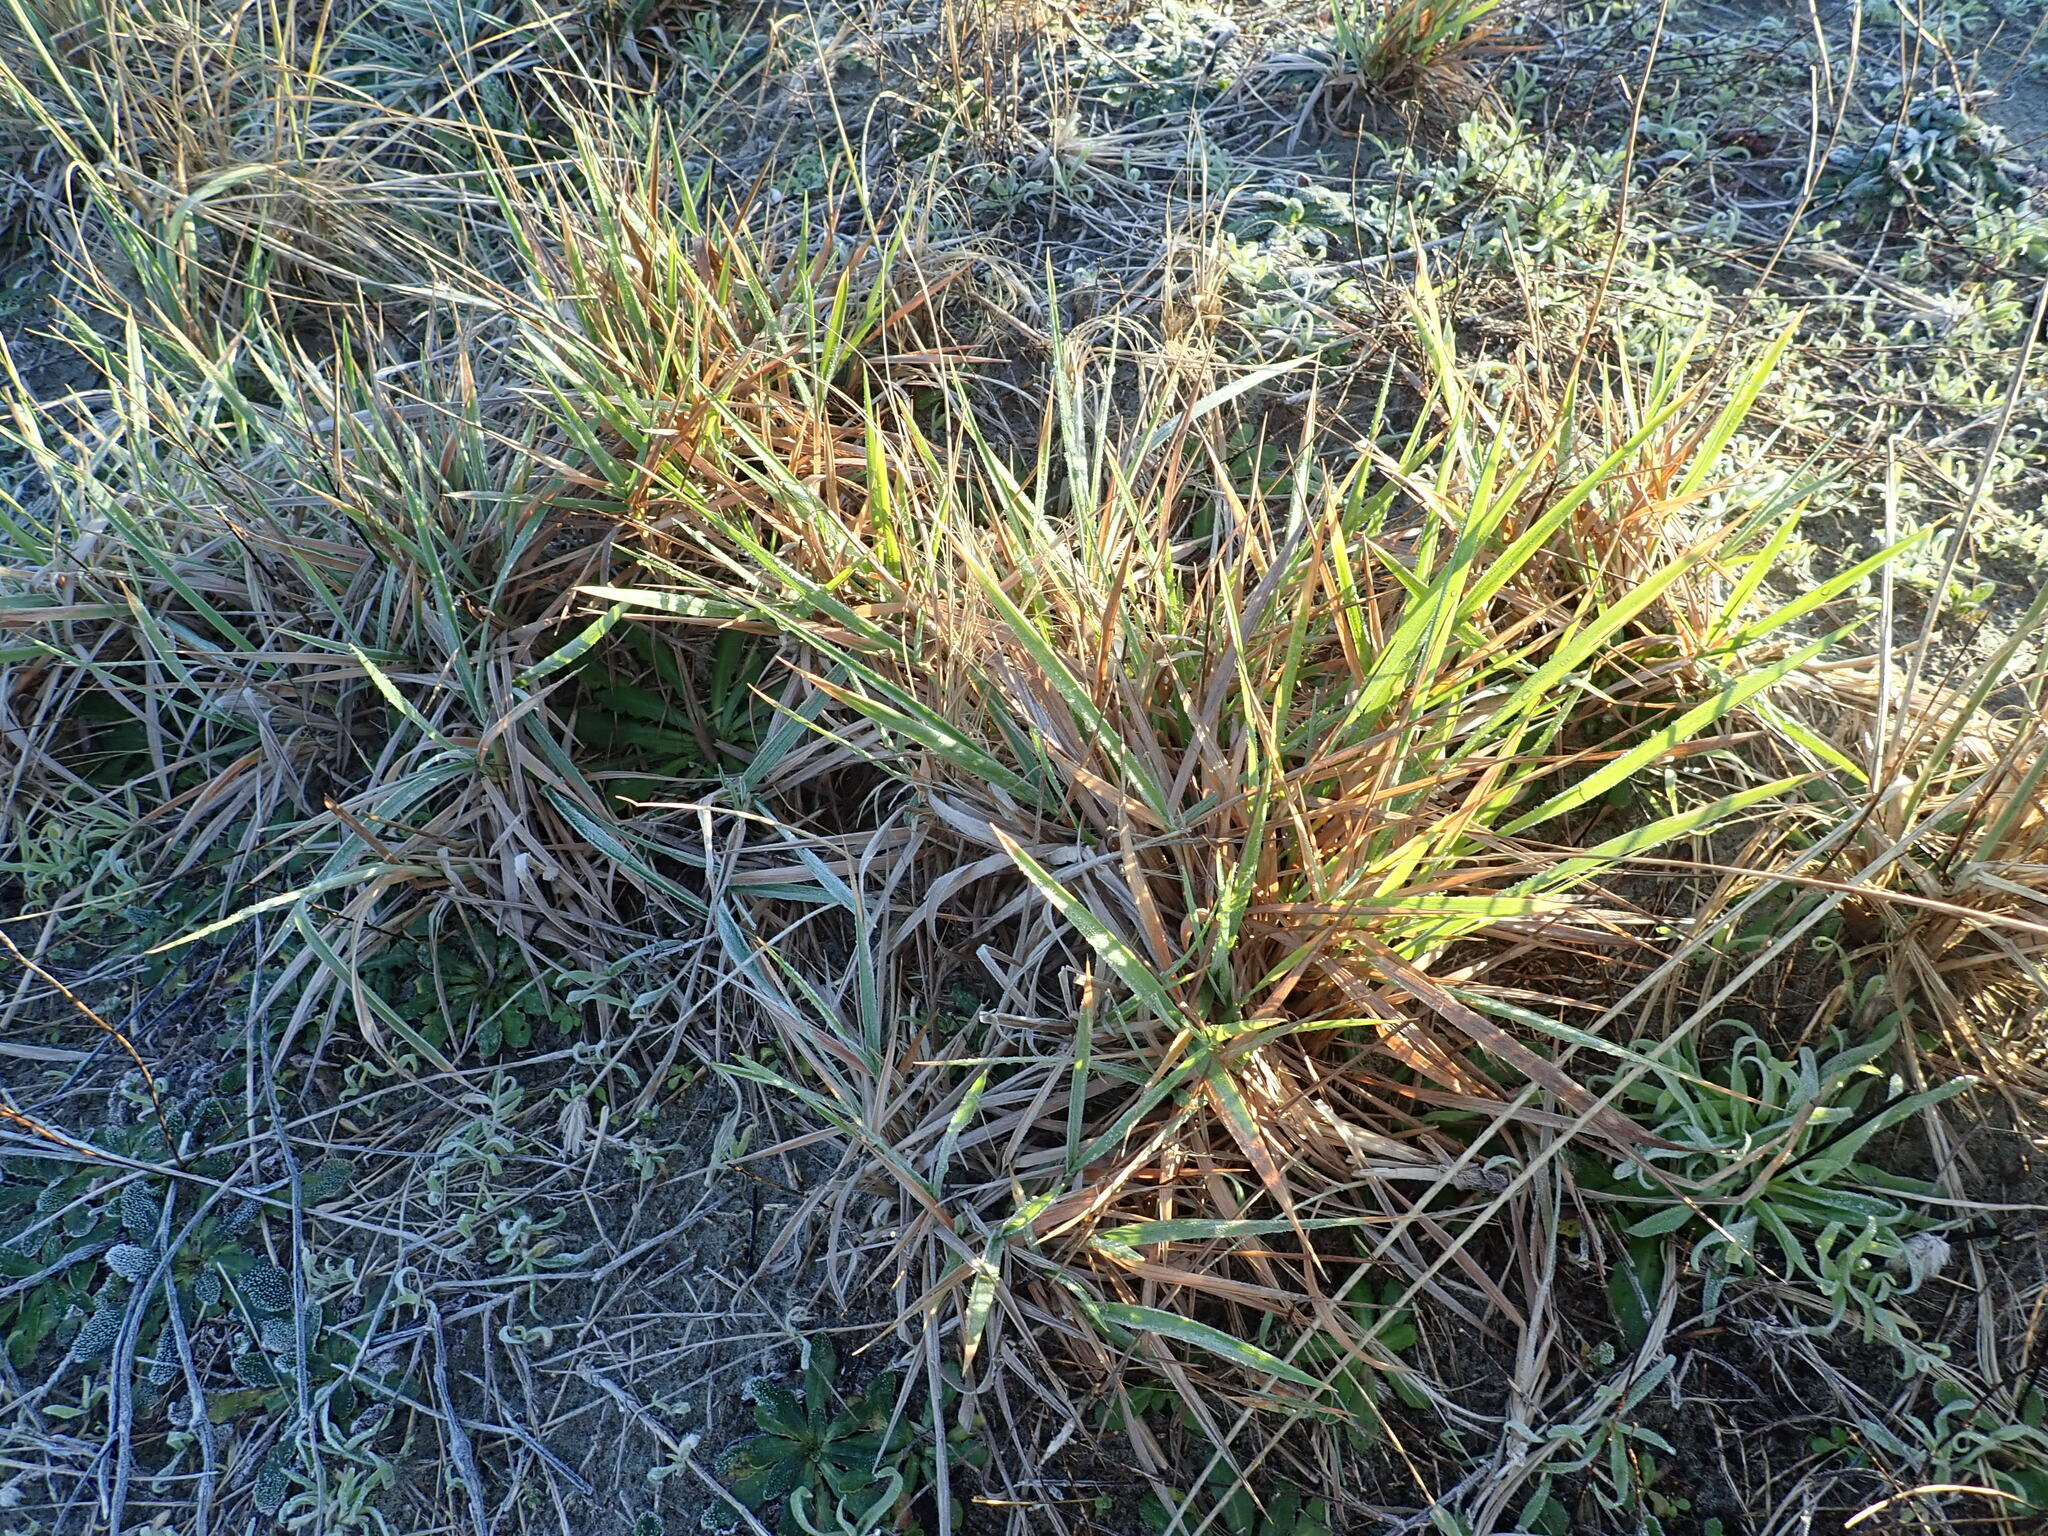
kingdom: Plantae
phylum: Tracheophyta
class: Liliopsida
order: Poales
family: Poaceae
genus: Lachnagrostis
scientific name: Lachnagrostis billardierei
